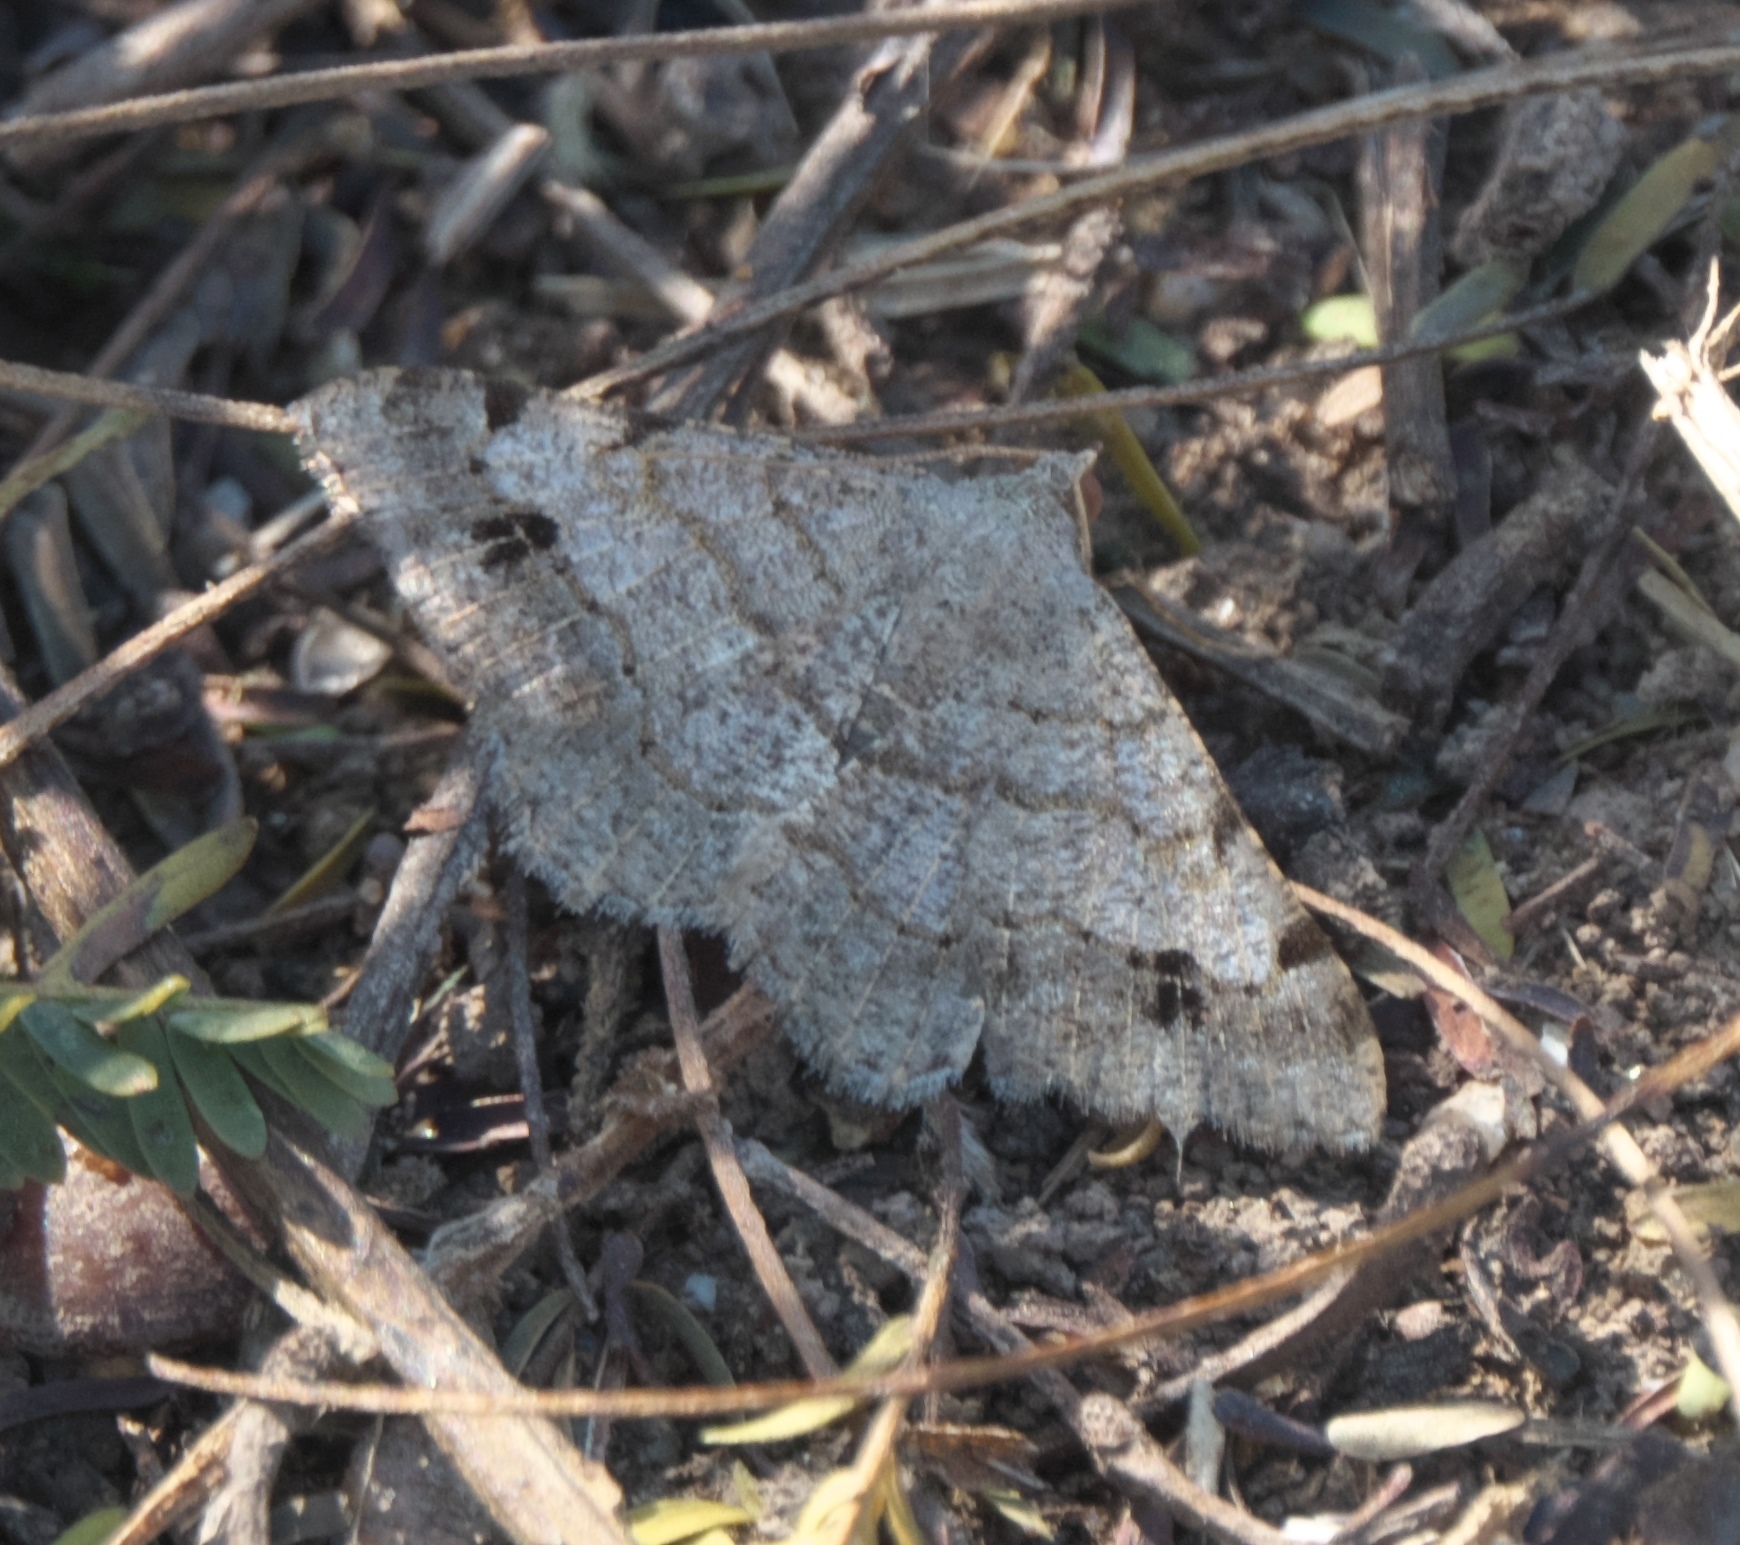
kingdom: Animalia
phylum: Arthropoda
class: Insecta
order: Lepidoptera
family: Geometridae
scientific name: Geometridae
